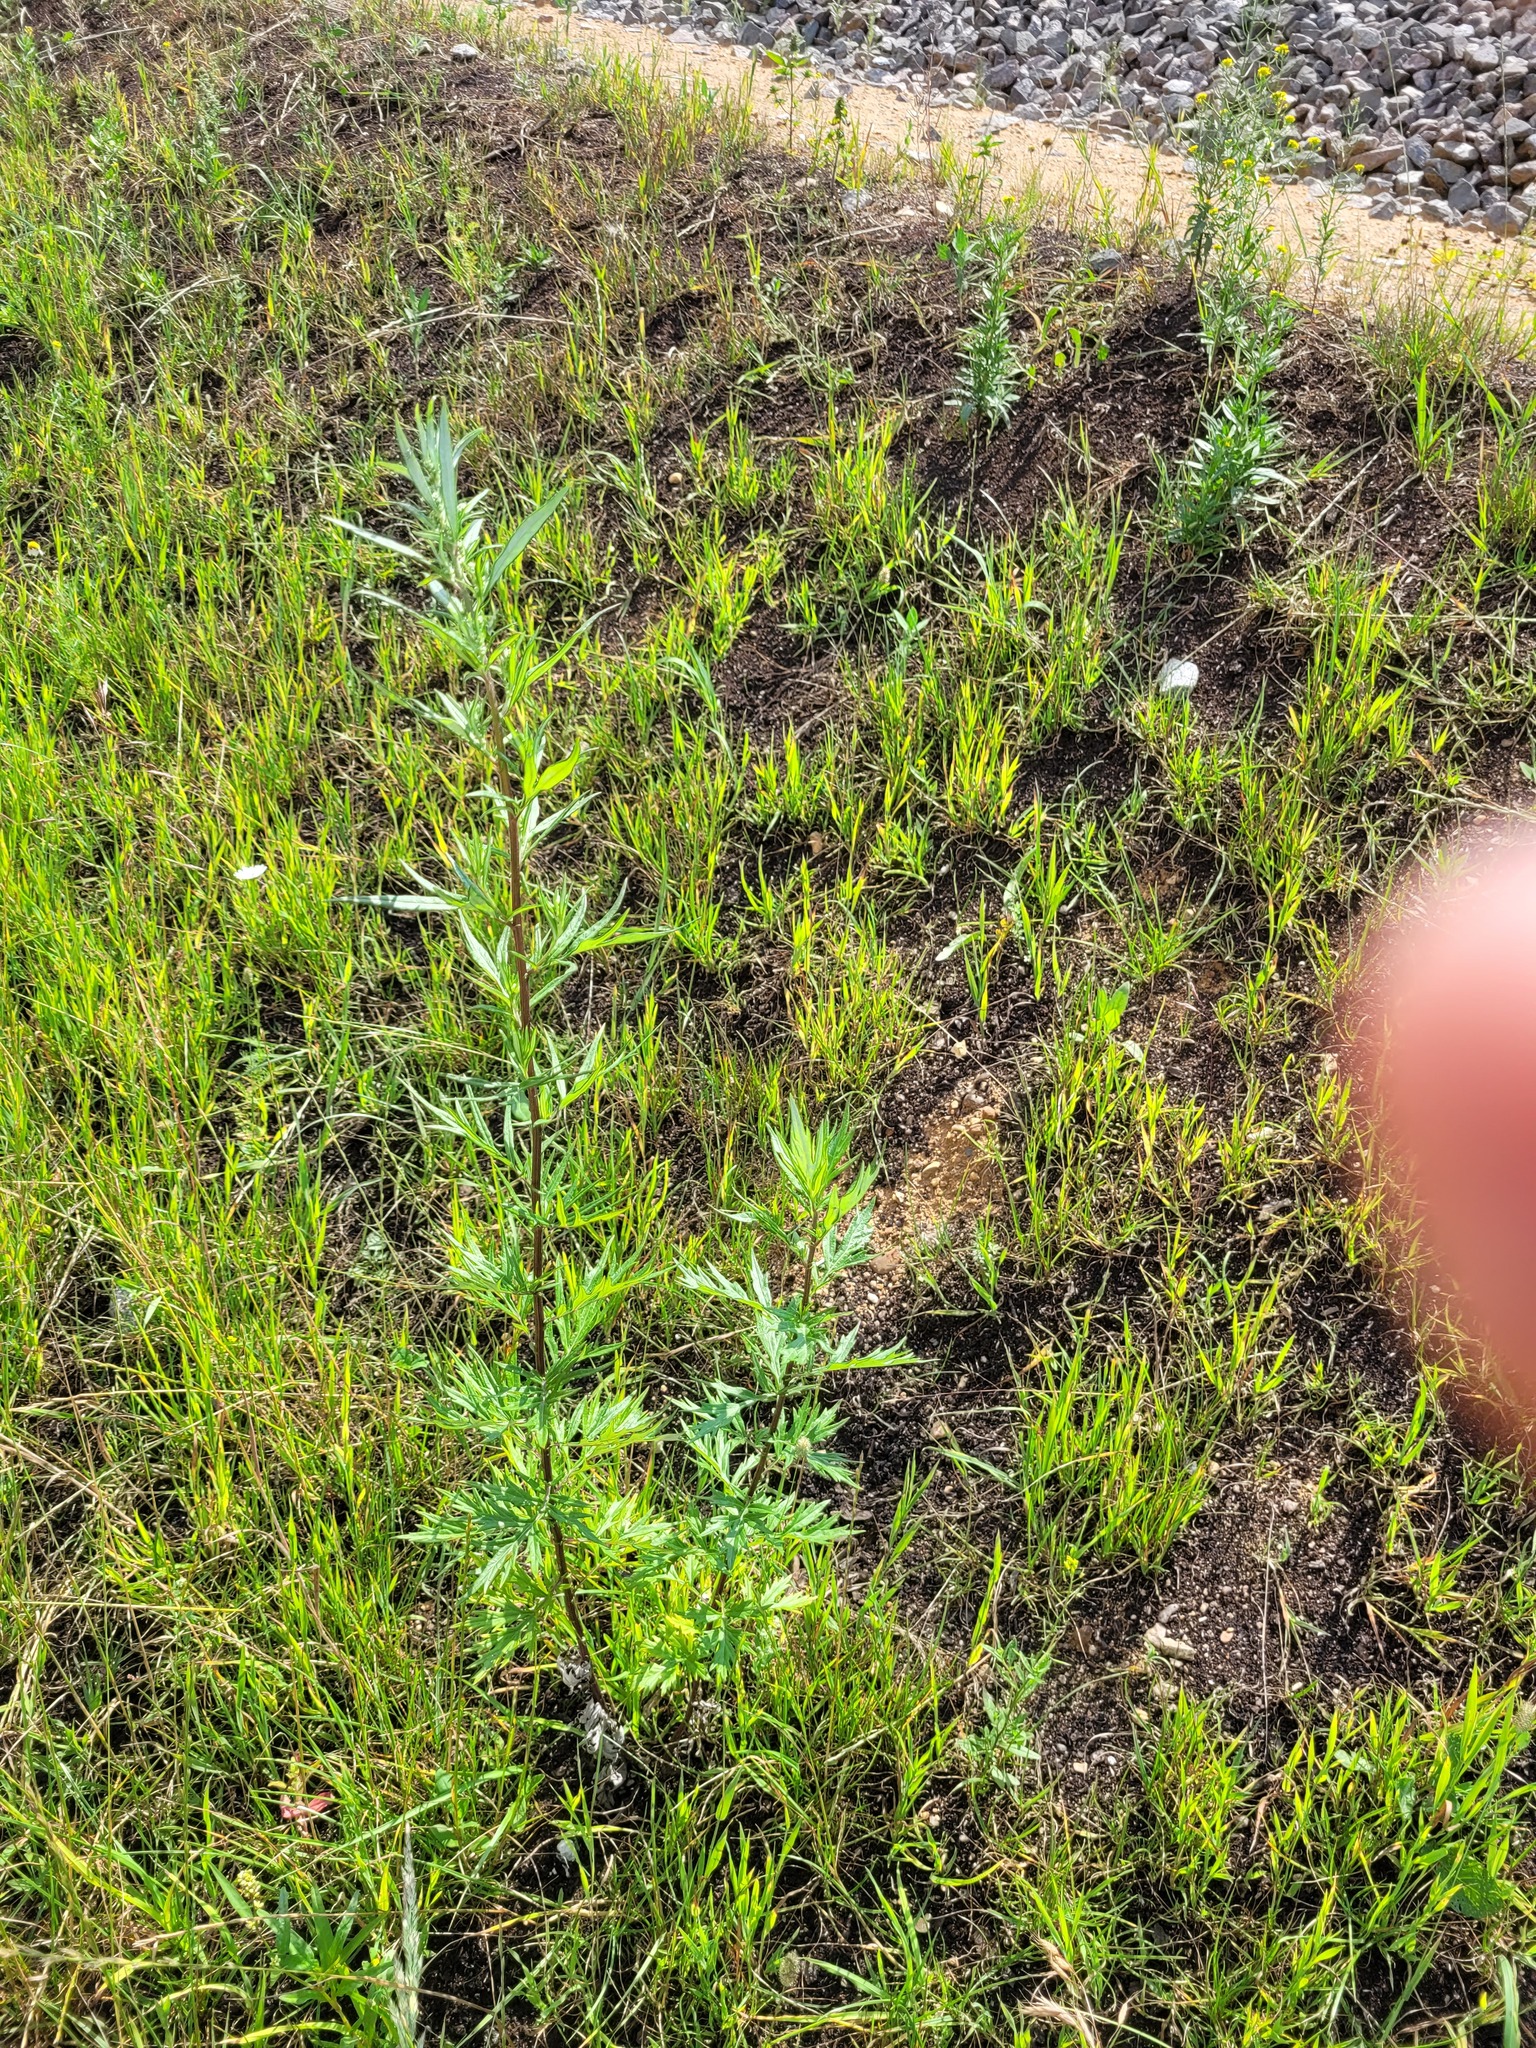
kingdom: Plantae
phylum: Tracheophyta
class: Magnoliopsida
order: Asterales
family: Asteraceae
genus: Artemisia
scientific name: Artemisia vulgaris
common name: Mugwort
